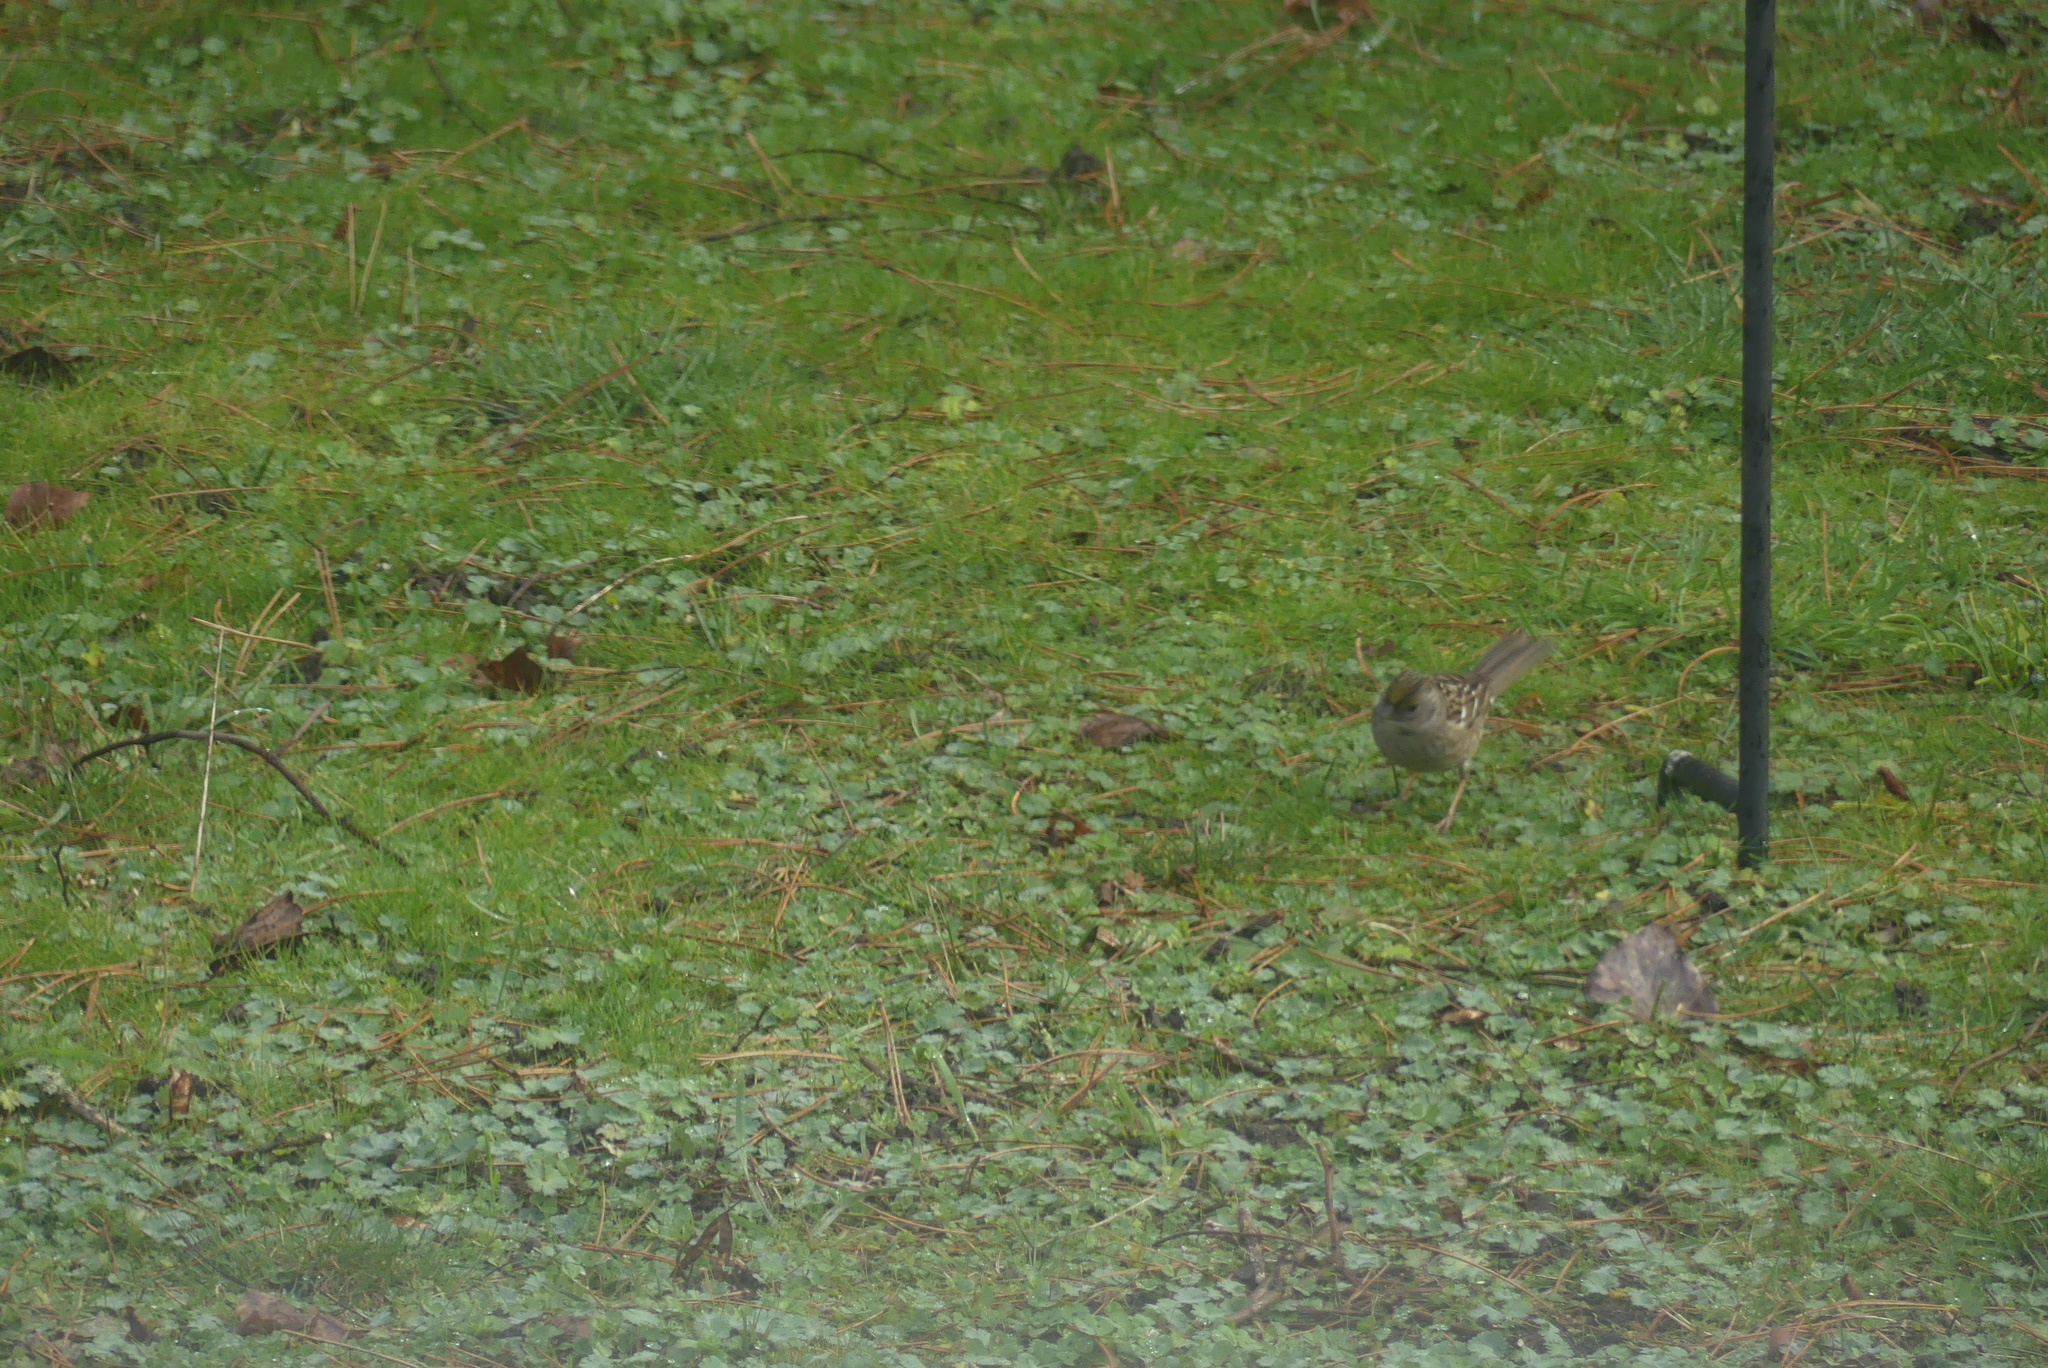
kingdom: Animalia
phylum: Chordata
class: Aves
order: Passeriformes
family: Passerellidae
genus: Zonotrichia
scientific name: Zonotrichia atricapilla
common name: Golden-crowned sparrow
